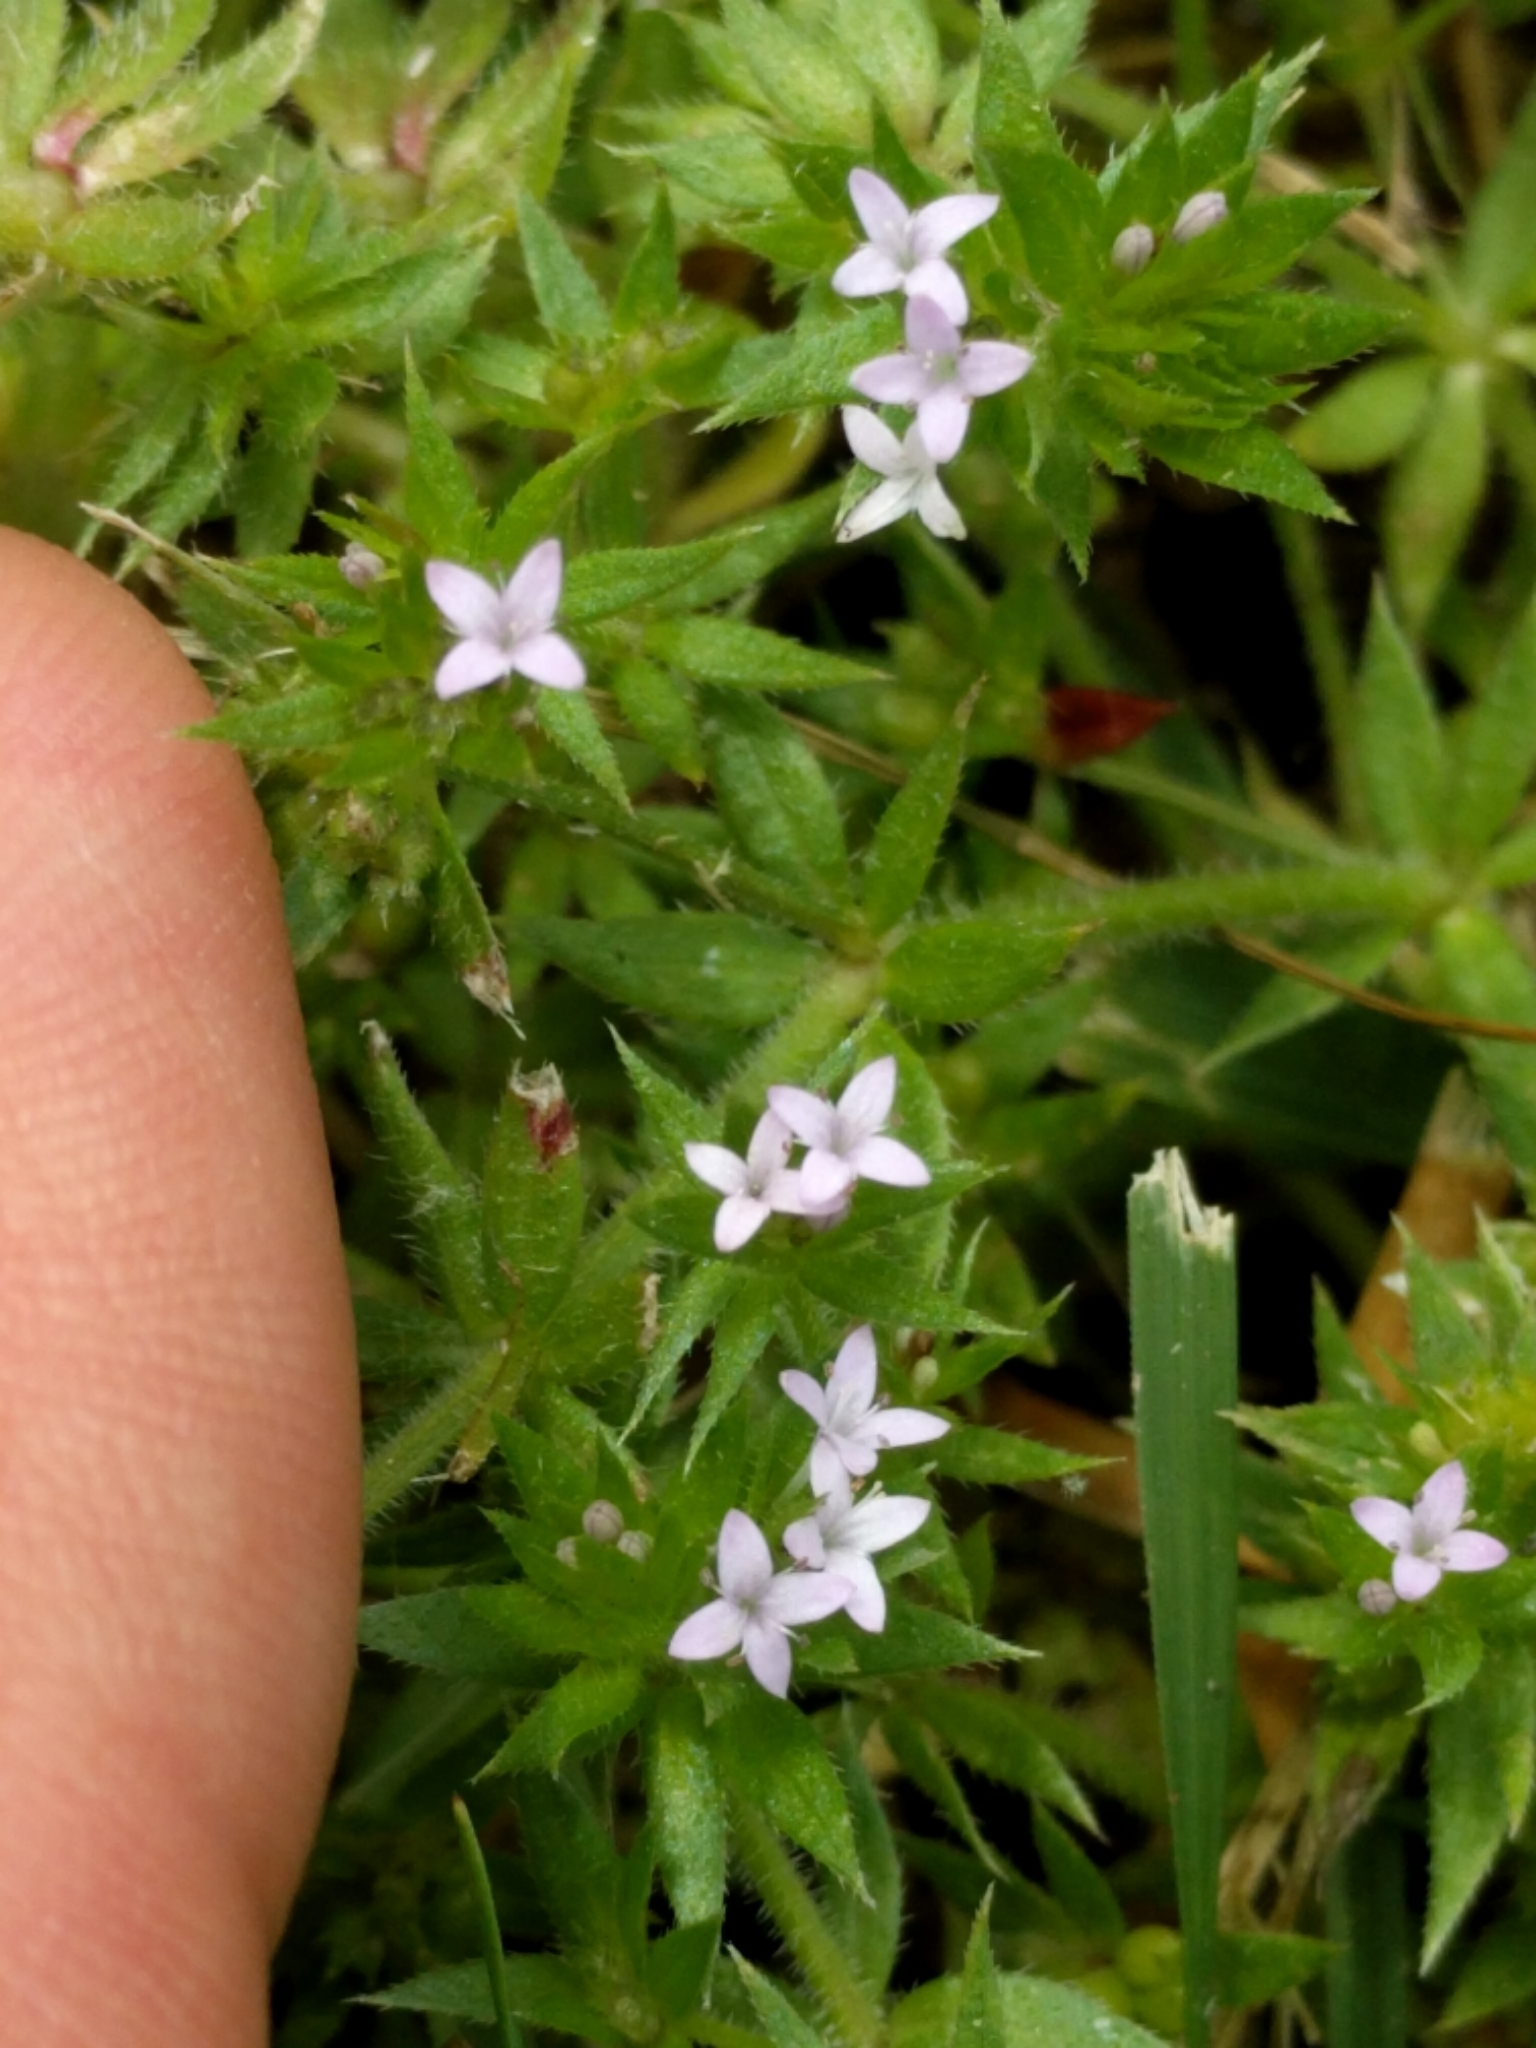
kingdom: Plantae
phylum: Tracheophyta
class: Magnoliopsida
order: Gentianales
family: Rubiaceae
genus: Sherardia
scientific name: Sherardia arvensis
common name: Field madder
